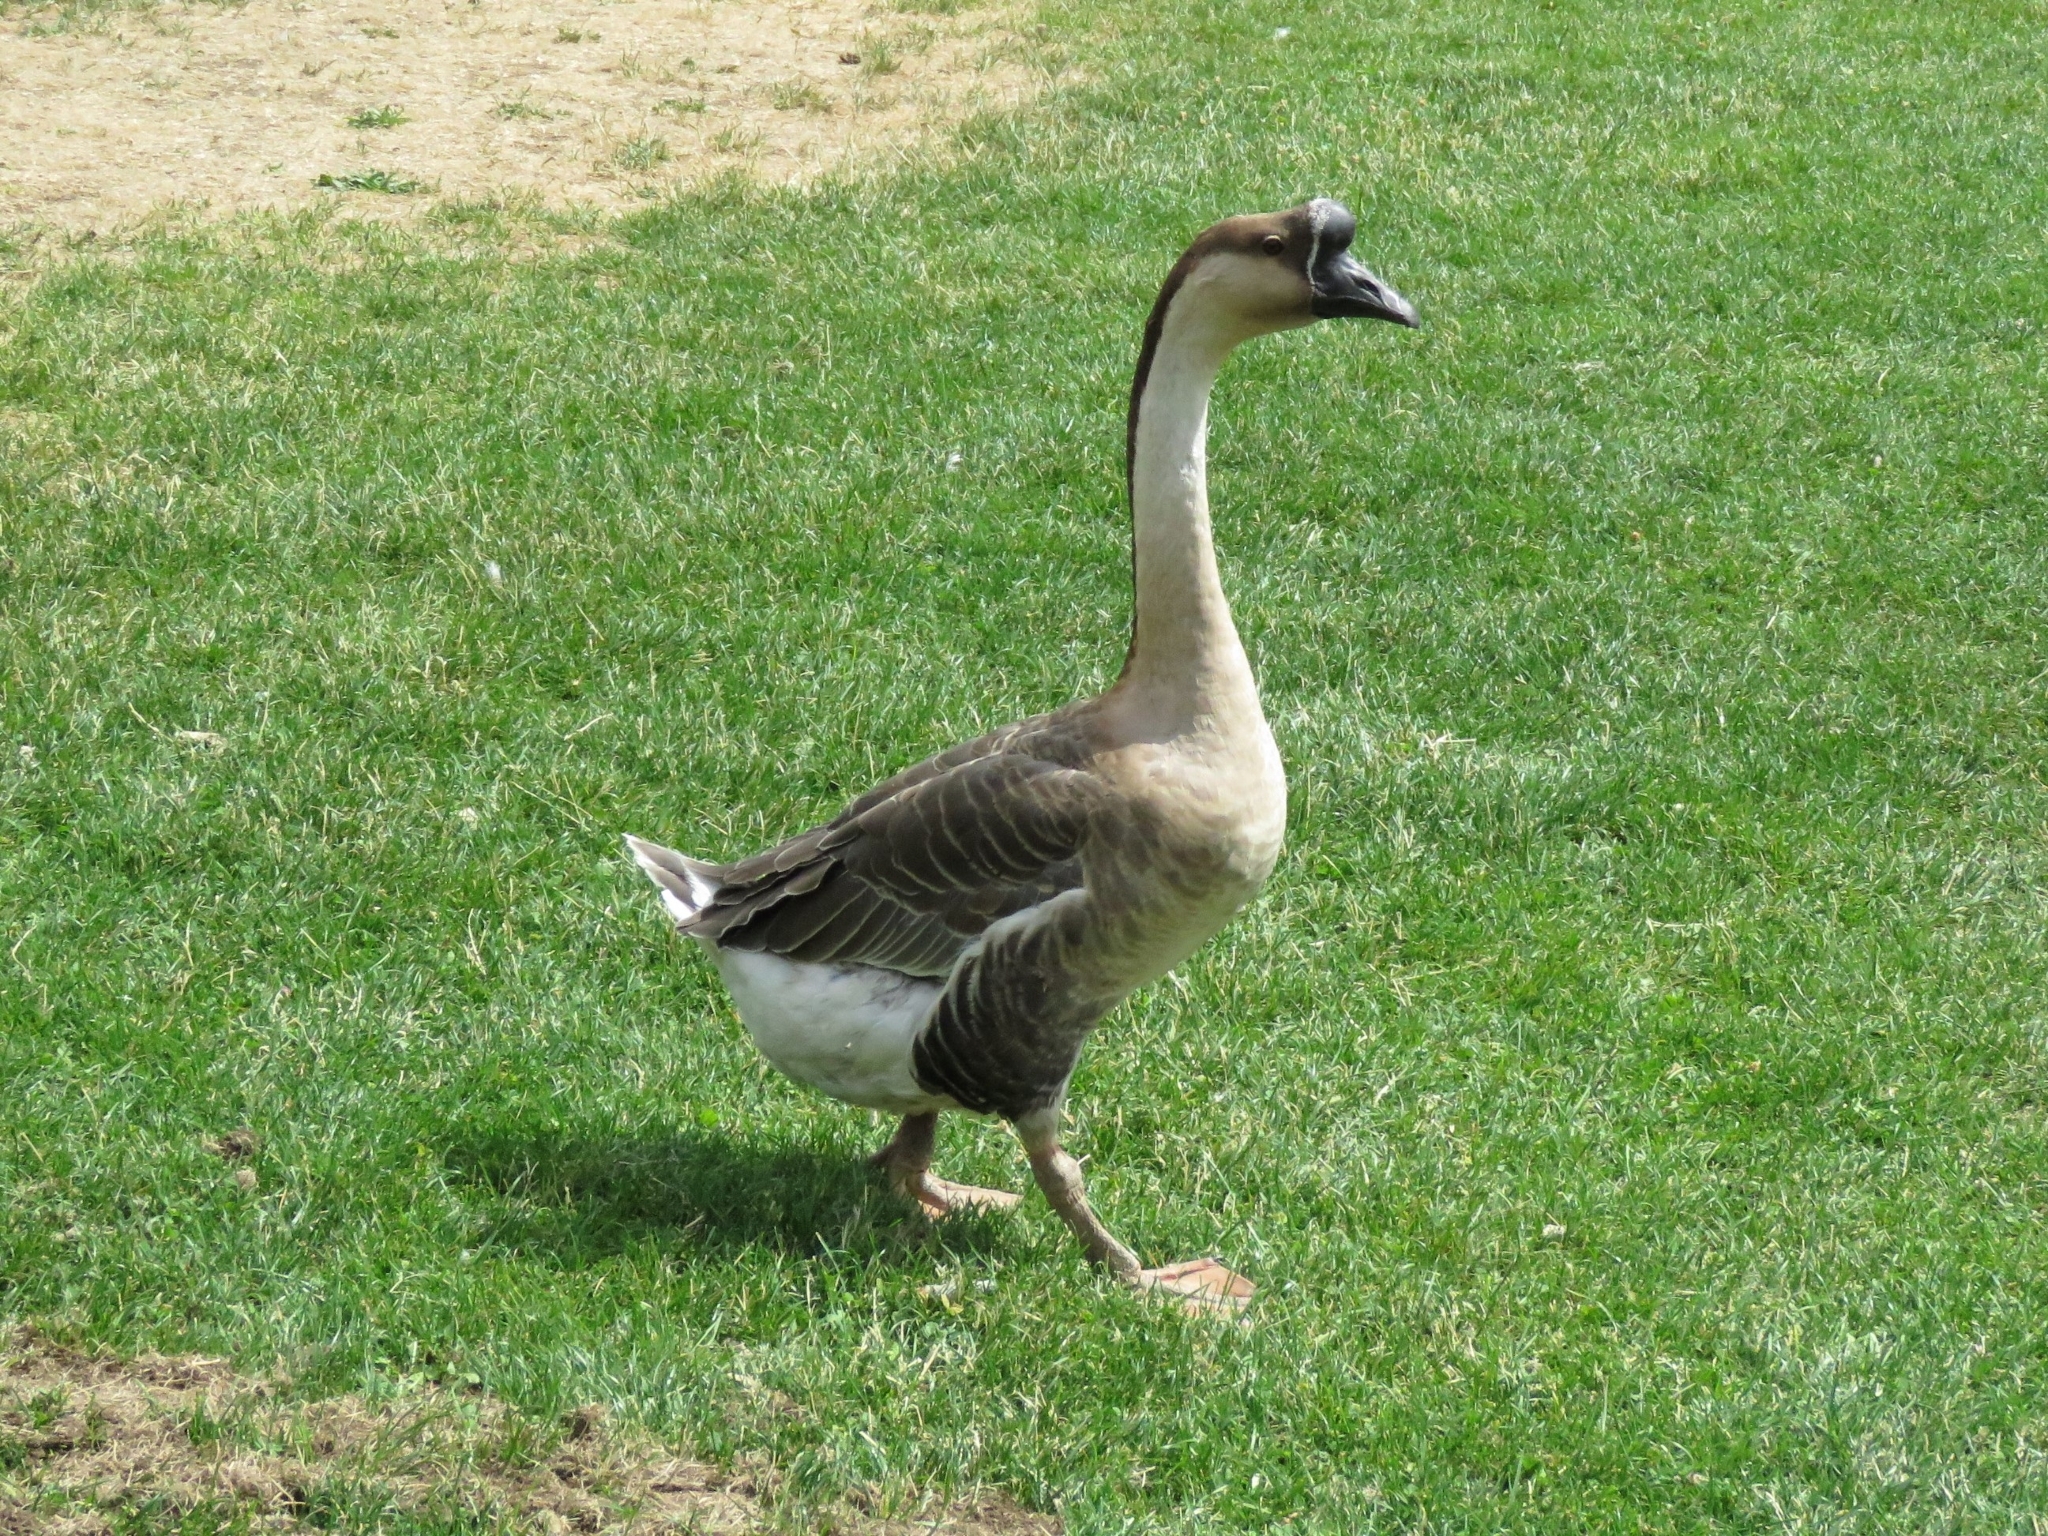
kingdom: Animalia
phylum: Chordata
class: Aves
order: Anseriformes
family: Anatidae
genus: Anser
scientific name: Anser cygnoides
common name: Swan goose
